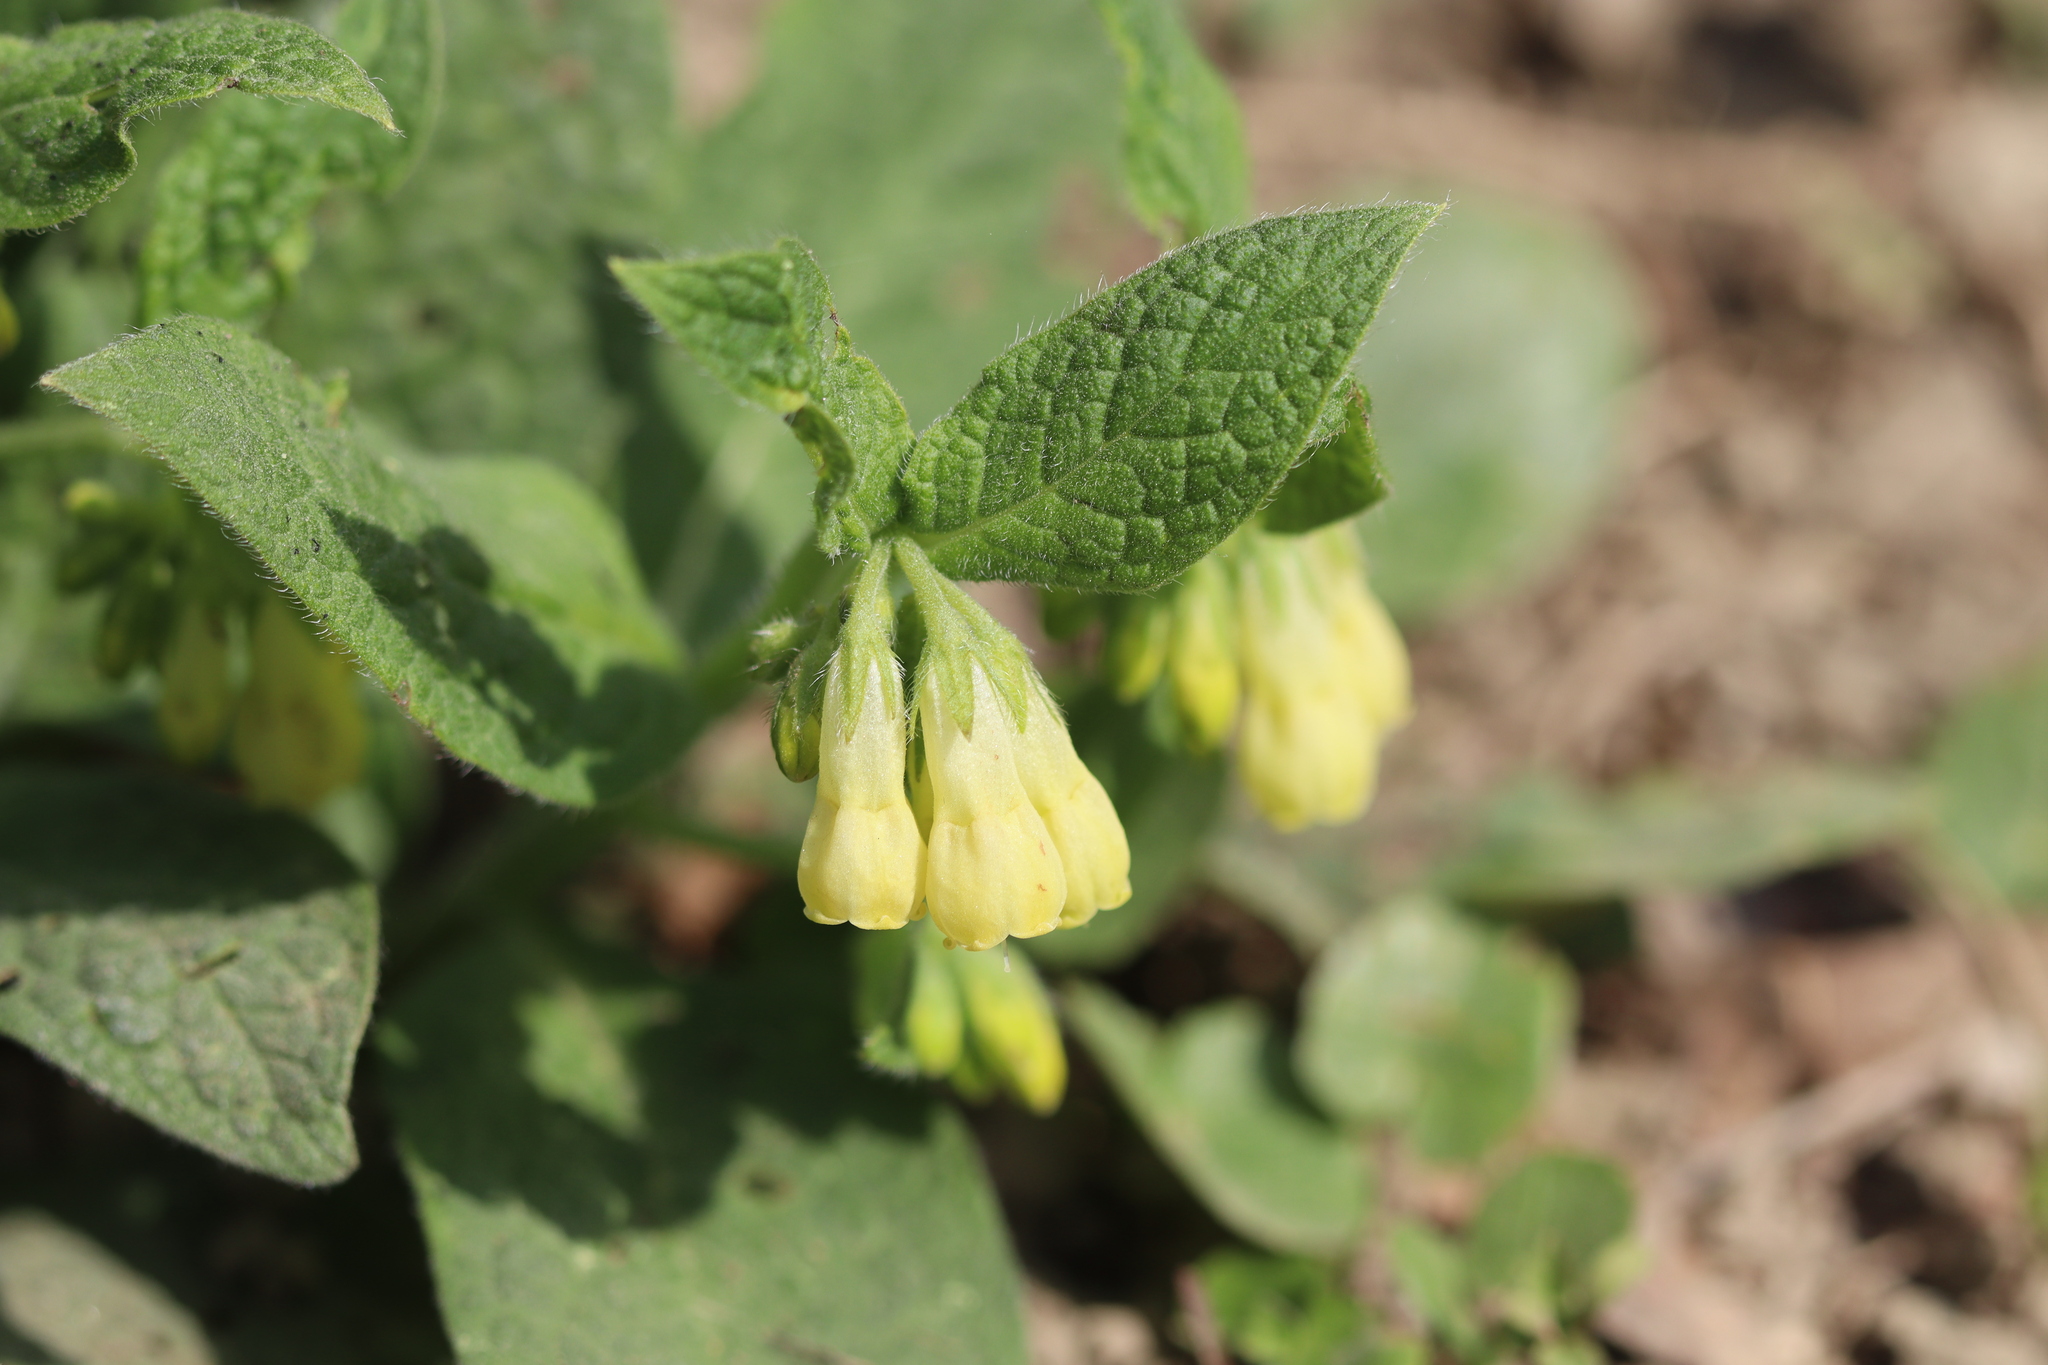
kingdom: Plantae
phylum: Tracheophyta
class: Magnoliopsida
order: Boraginales
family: Boraginaceae
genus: Symphytum
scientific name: Symphytum tuberosum
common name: Tuberous comfrey
